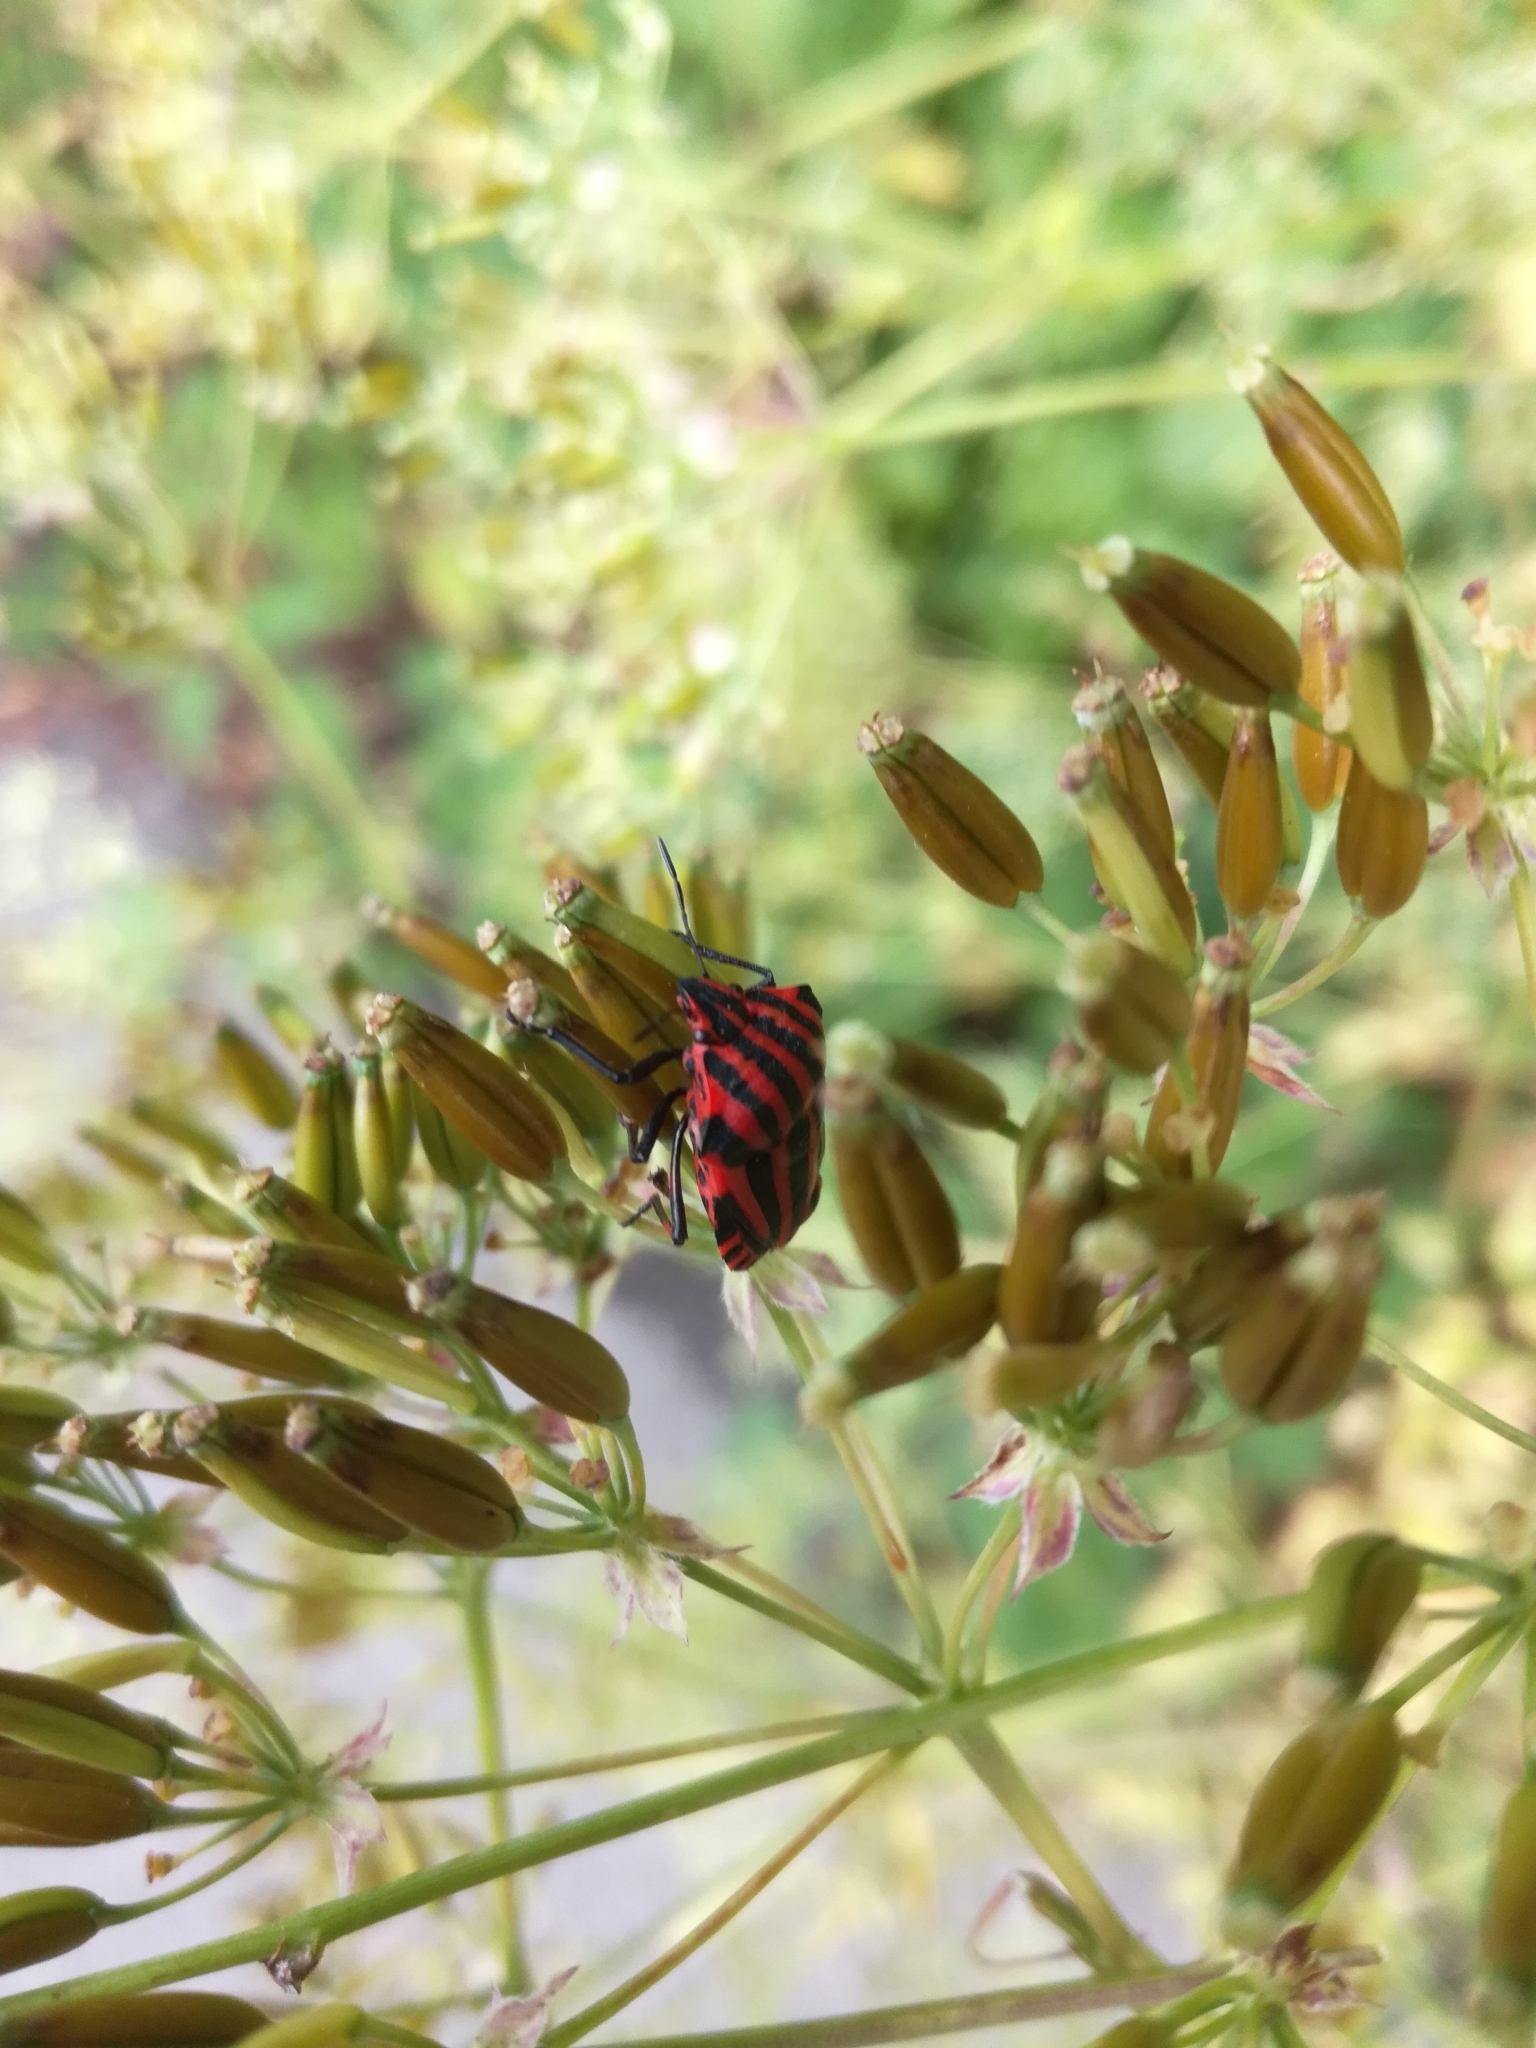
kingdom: Animalia
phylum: Arthropoda
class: Insecta
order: Hemiptera
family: Pentatomidae
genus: Graphosoma
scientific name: Graphosoma italicum
